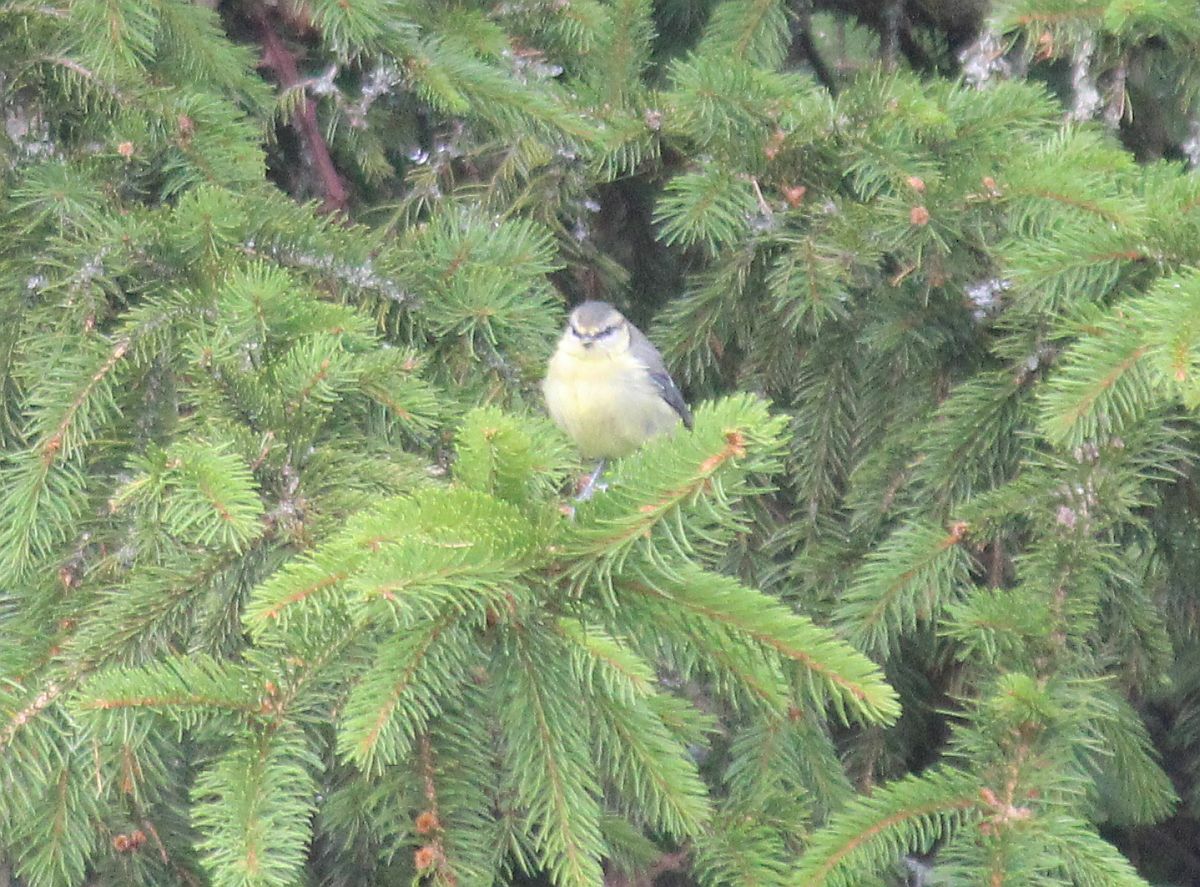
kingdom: Animalia
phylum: Chordata
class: Aves
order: Passeriformes
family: Paridae
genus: Cyanistes
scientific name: Cyanistes caeruleus
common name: Eurasian blue tit
